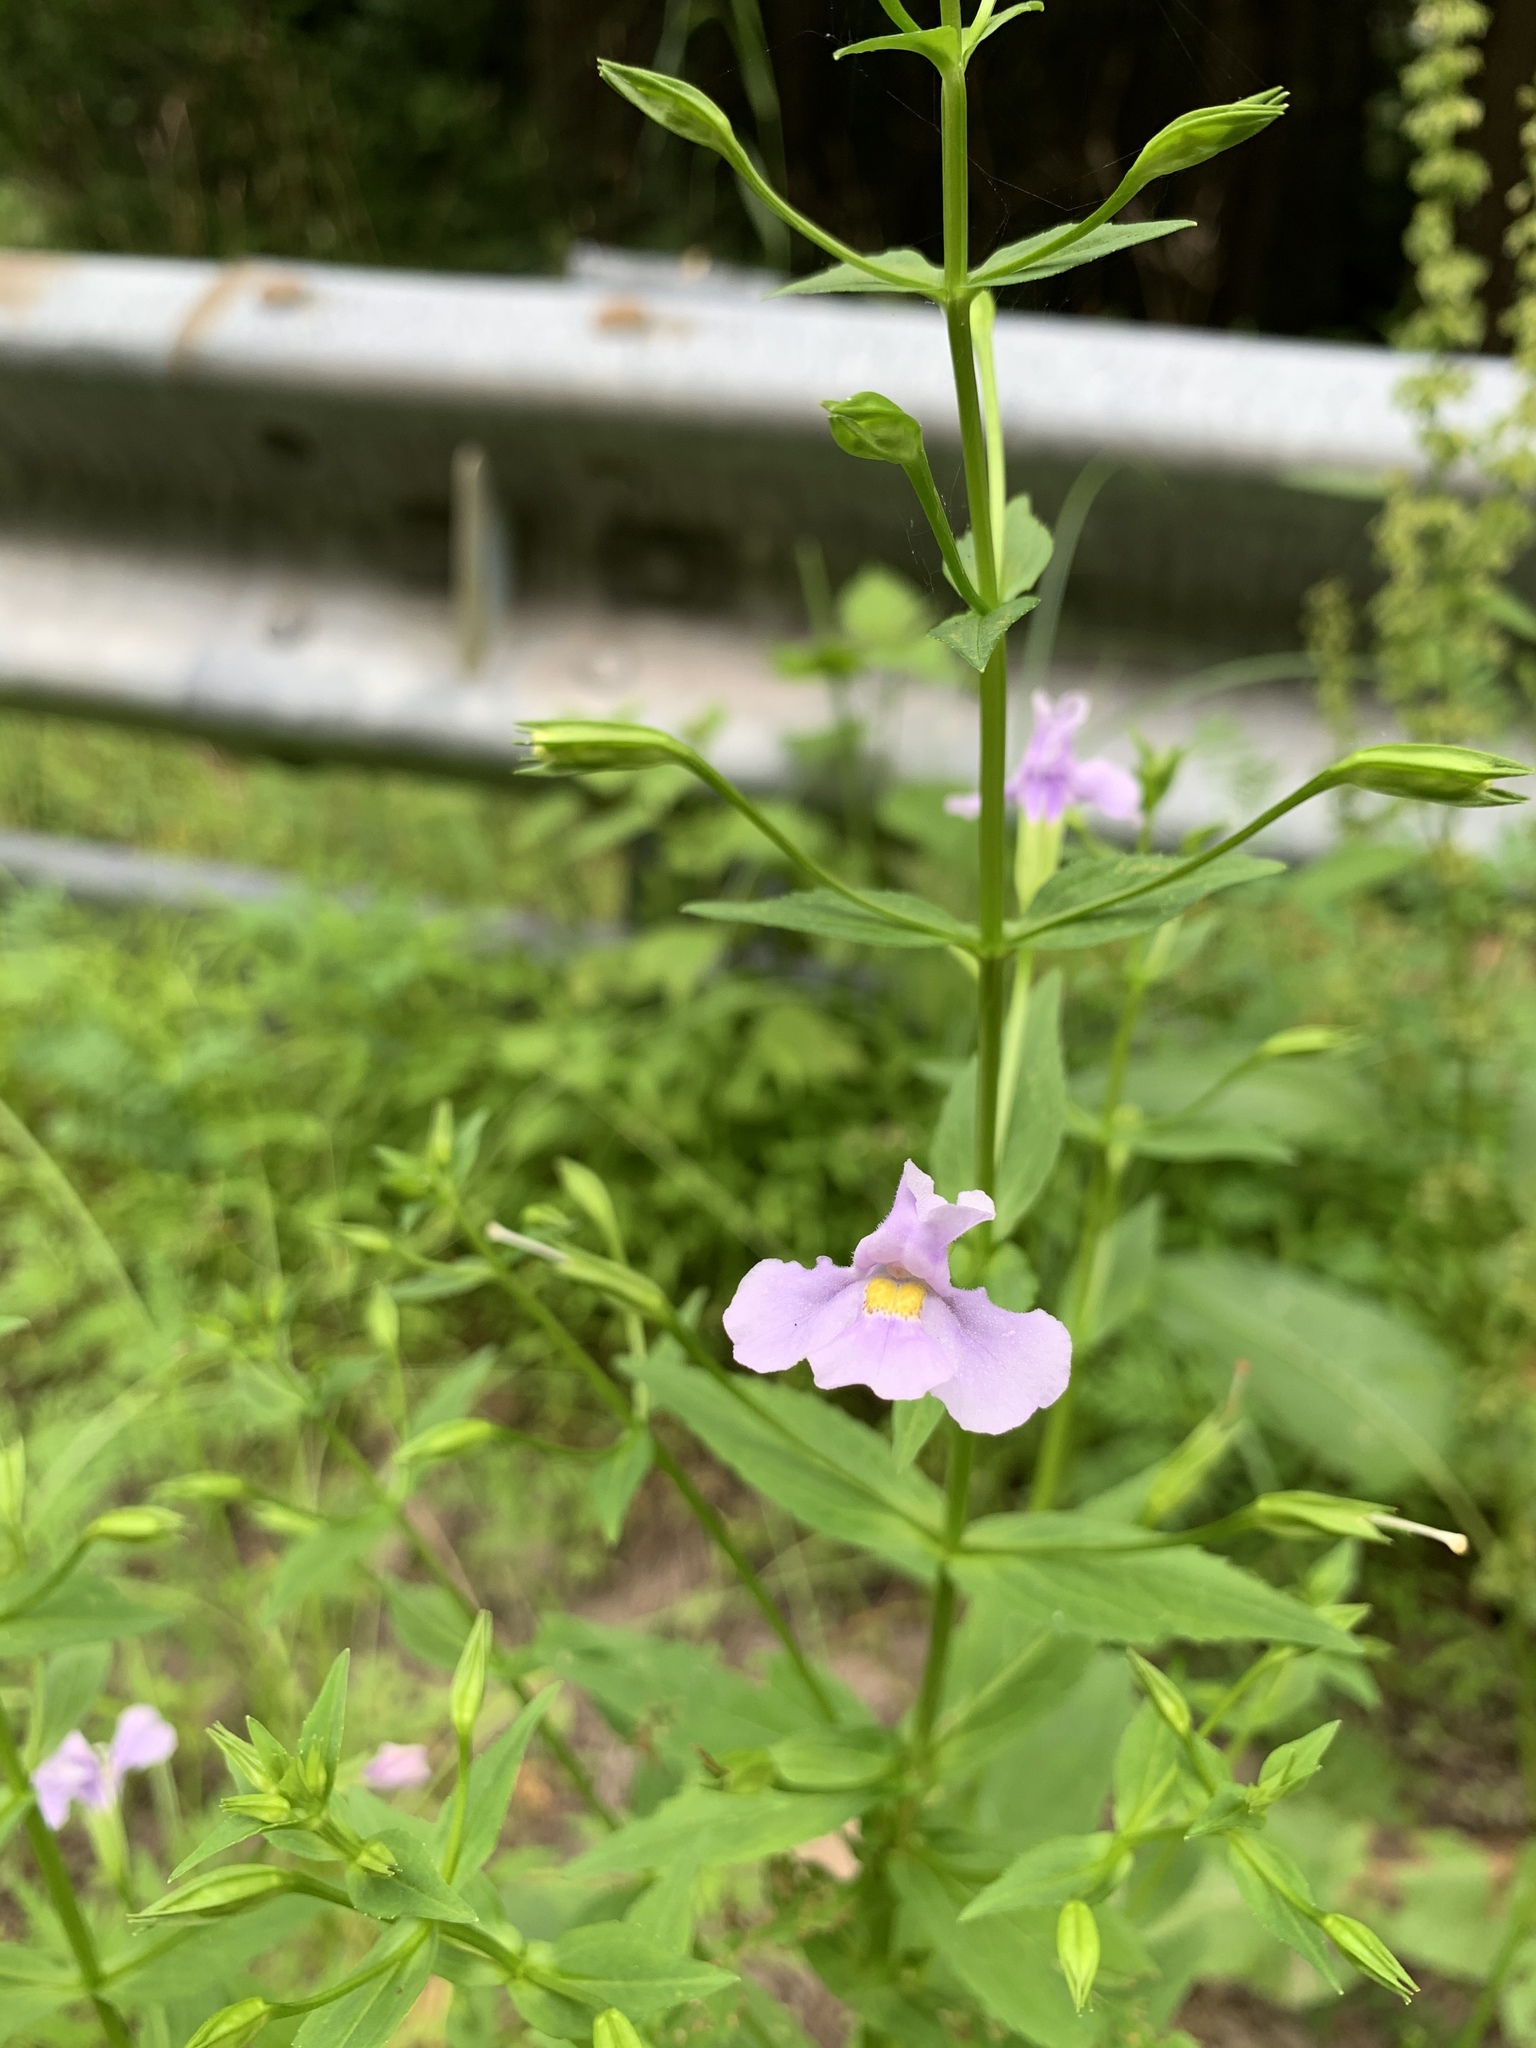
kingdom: Plantae
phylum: Tracheophyta
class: Magnoliopsida
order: Lamiales
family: Phrymaceae
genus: Mimulus
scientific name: Mimulus ringens
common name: Allegheny monkeyflower
